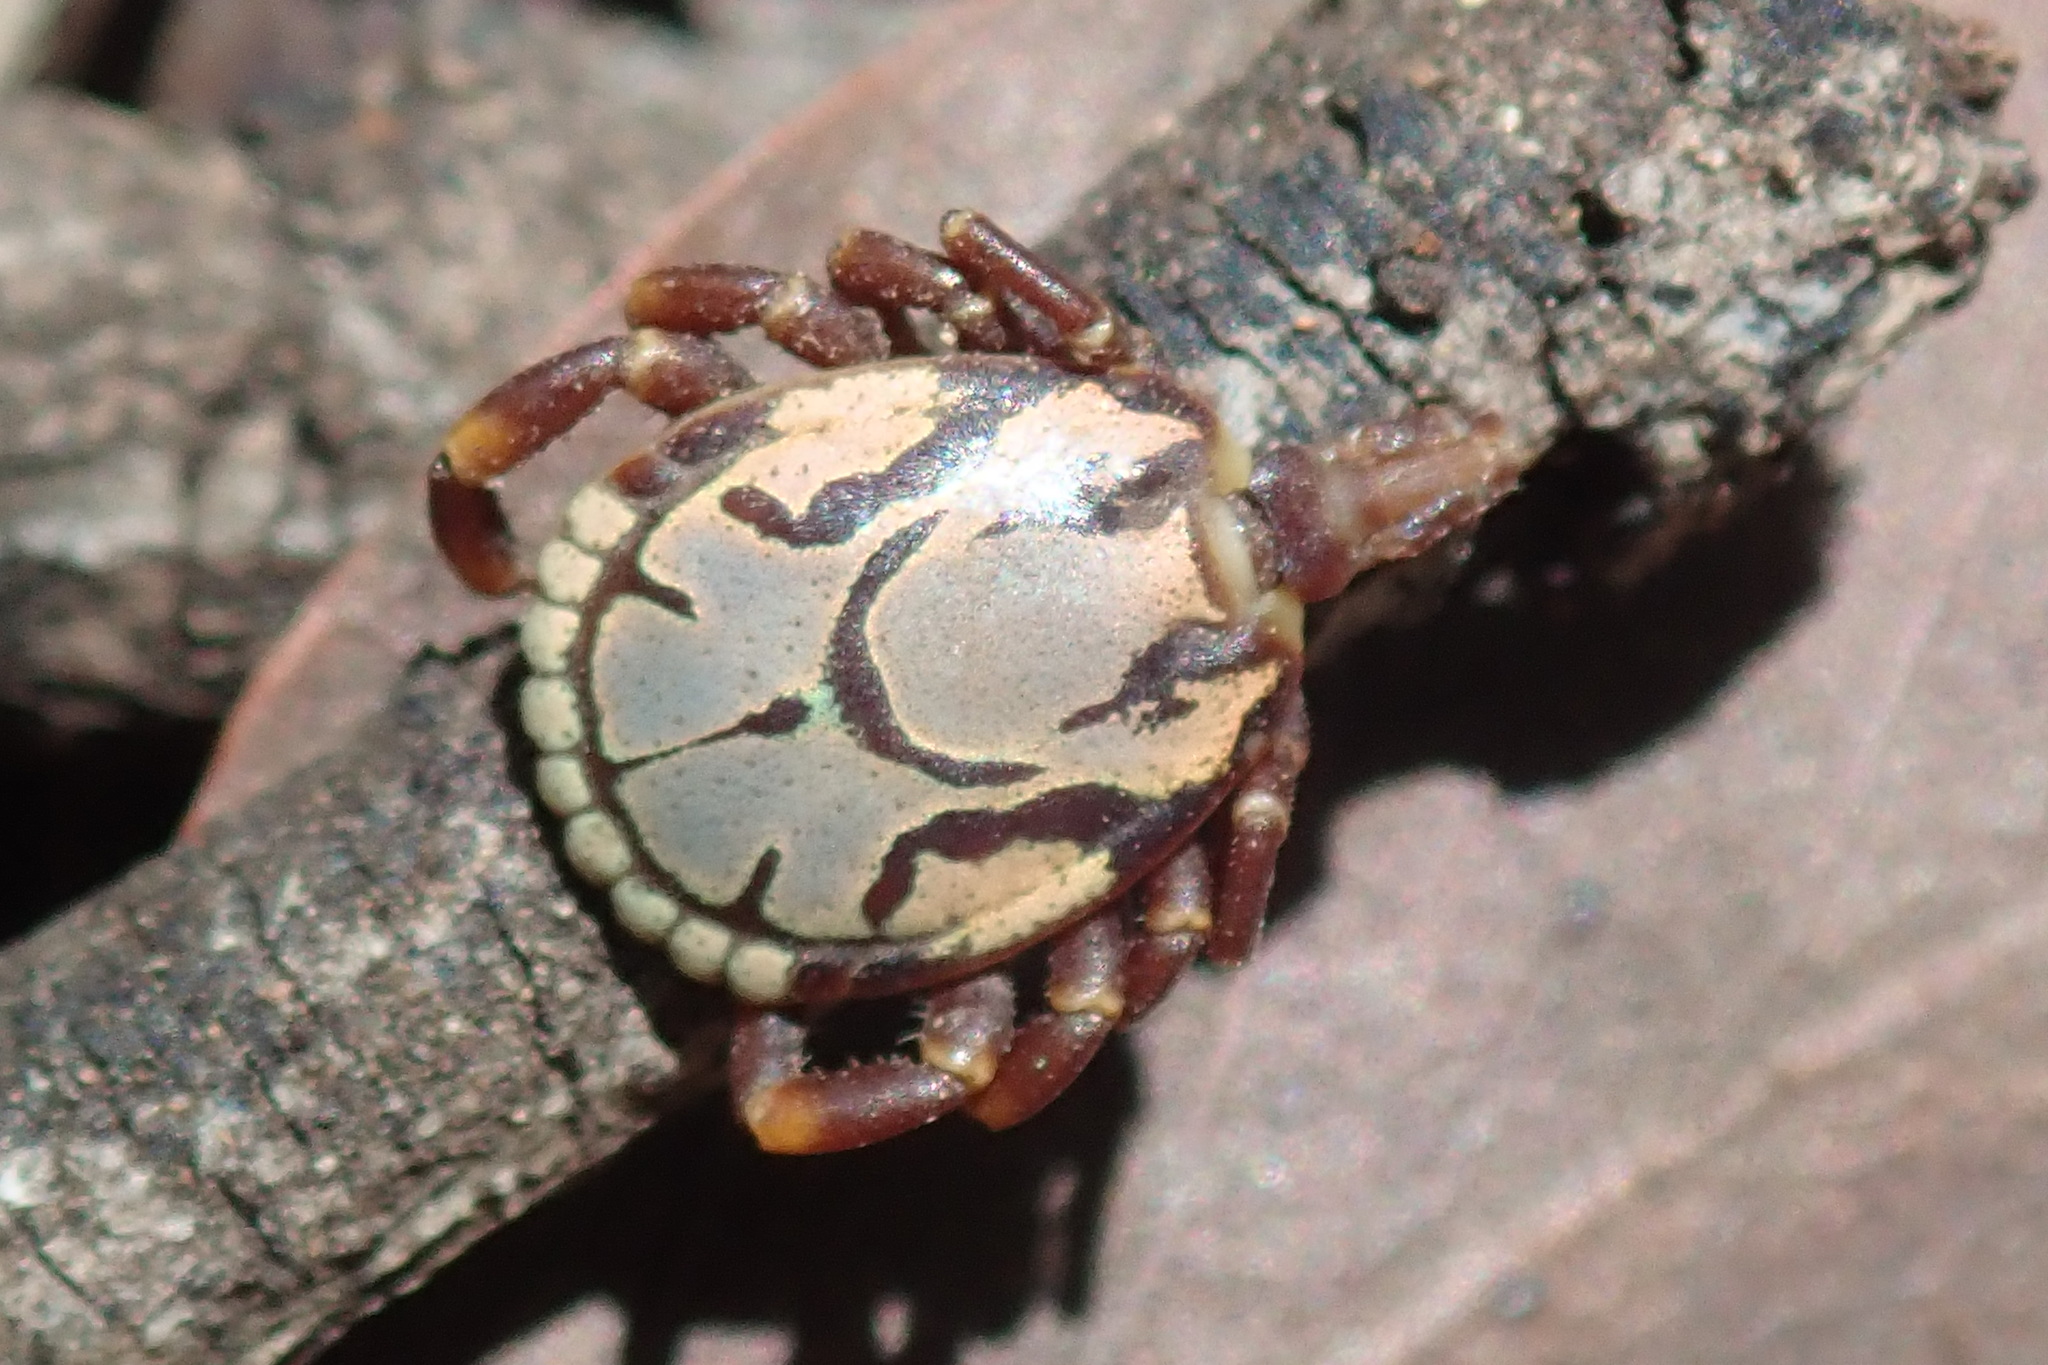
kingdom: Animalia
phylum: Arthropoda
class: Arachnida
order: Ixodida
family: Ixodidae
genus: Amblyomma
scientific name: Amblyomma hebraeum
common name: Bont tick
